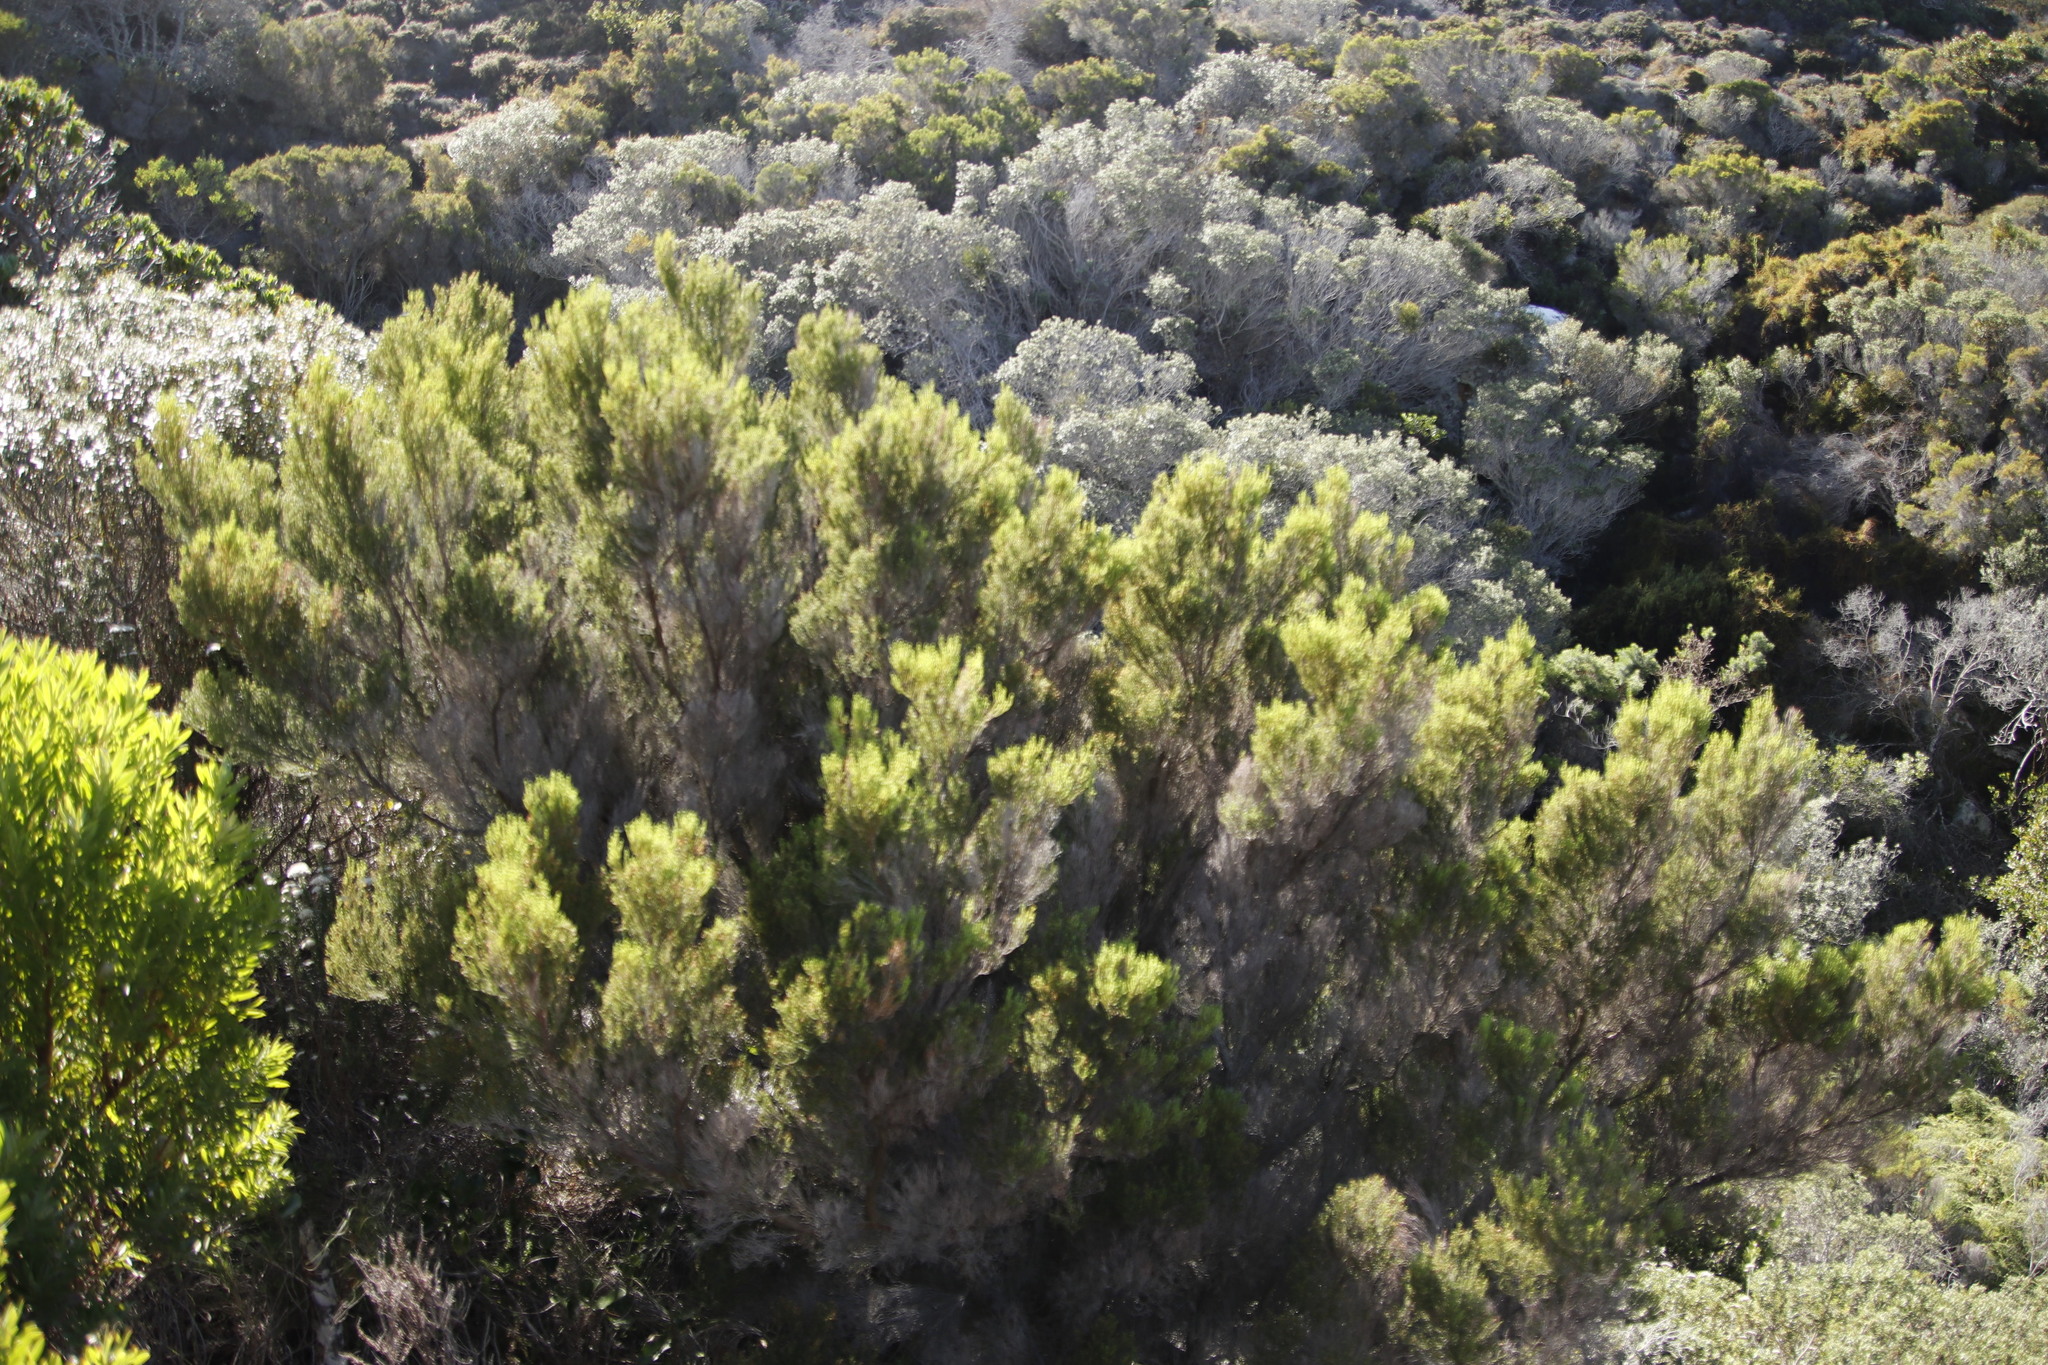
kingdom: Plantae
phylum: Tracheophyta
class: Magnoliopsida
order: Ericales
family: Ericaceae
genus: Erica
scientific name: Erica tristis
